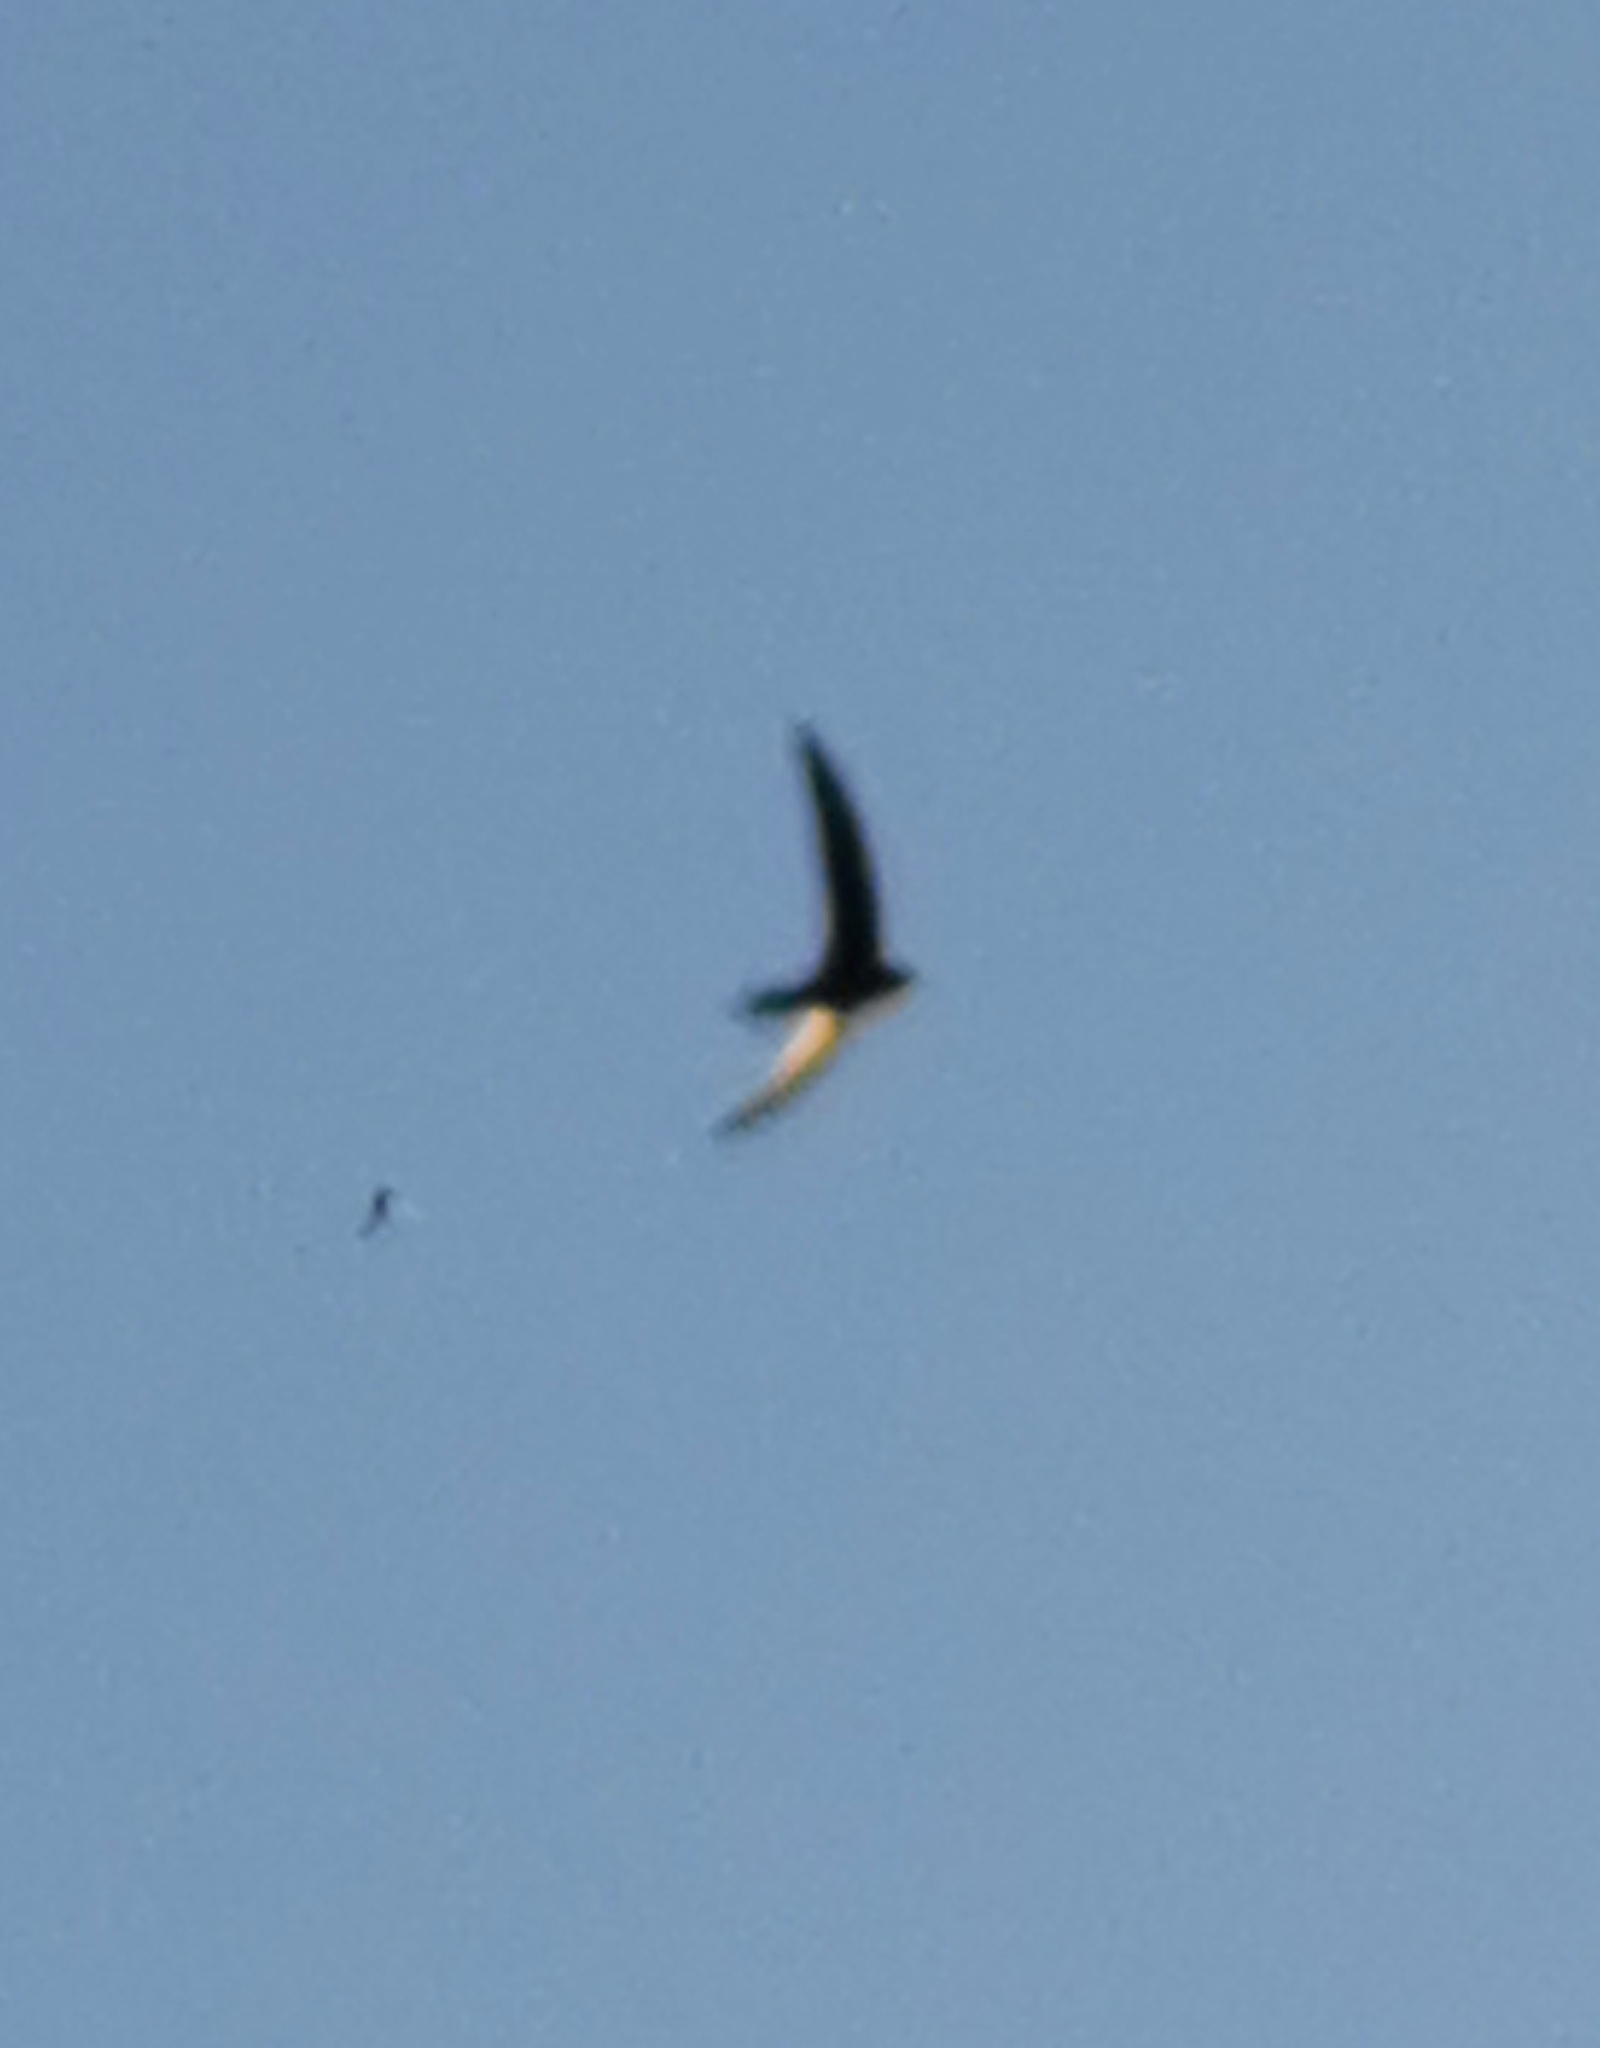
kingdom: Animalia
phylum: Chordata
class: Aves
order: Apodiformes
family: Apodidae
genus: Apus
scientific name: Apus apus
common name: Common swift
